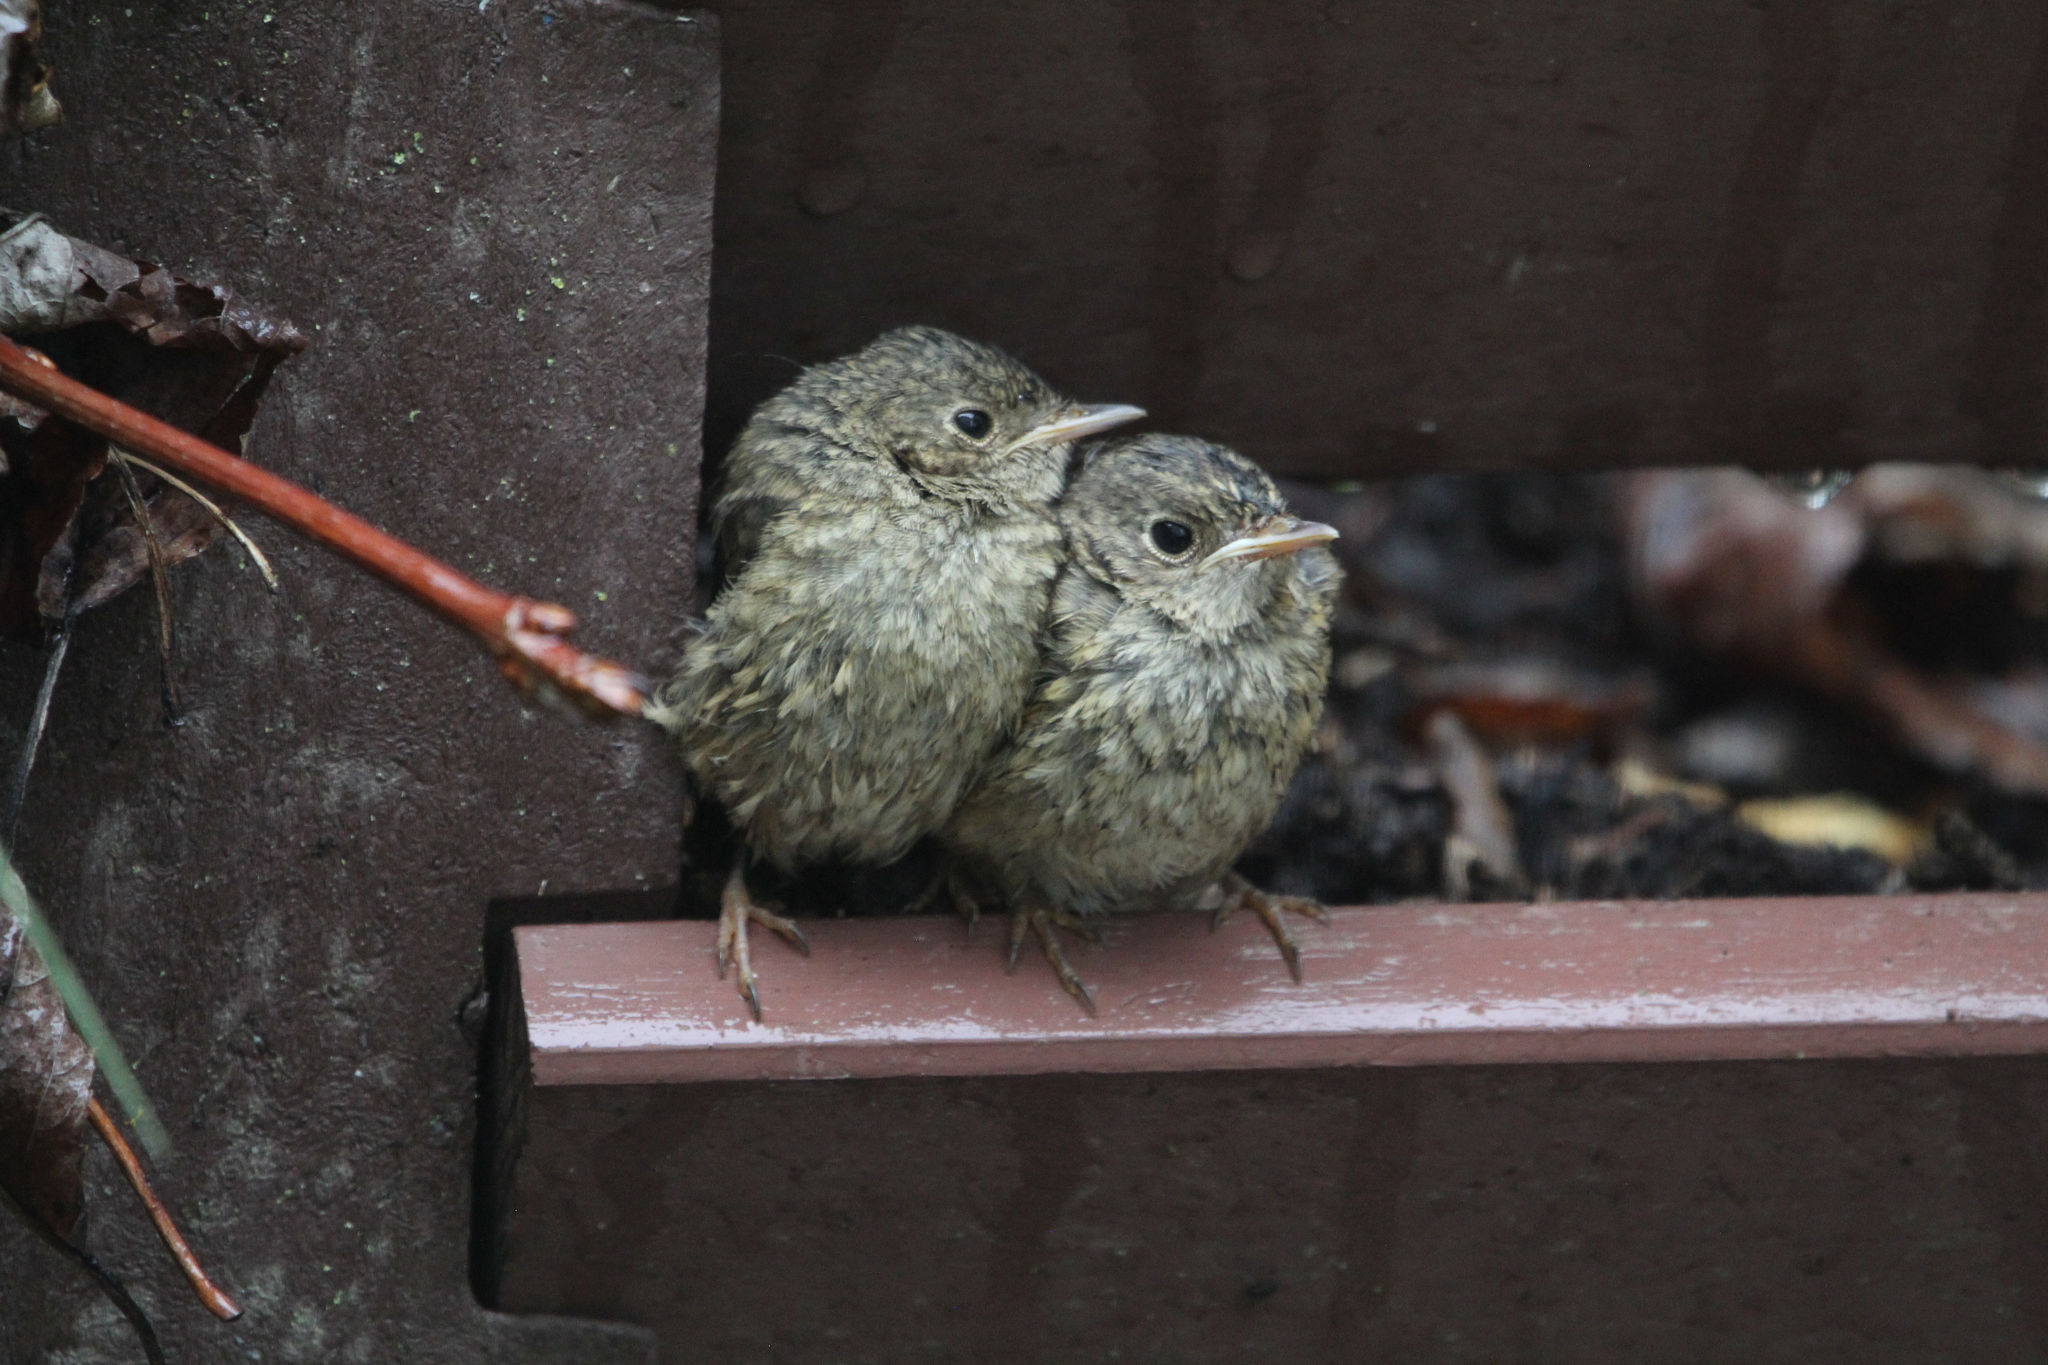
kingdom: Animalia
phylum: Chordata
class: Aves
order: Passeriformes
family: Muscicapidae
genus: Phoenicurus
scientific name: Phoenicurus phoenicurus
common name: Common redstart
